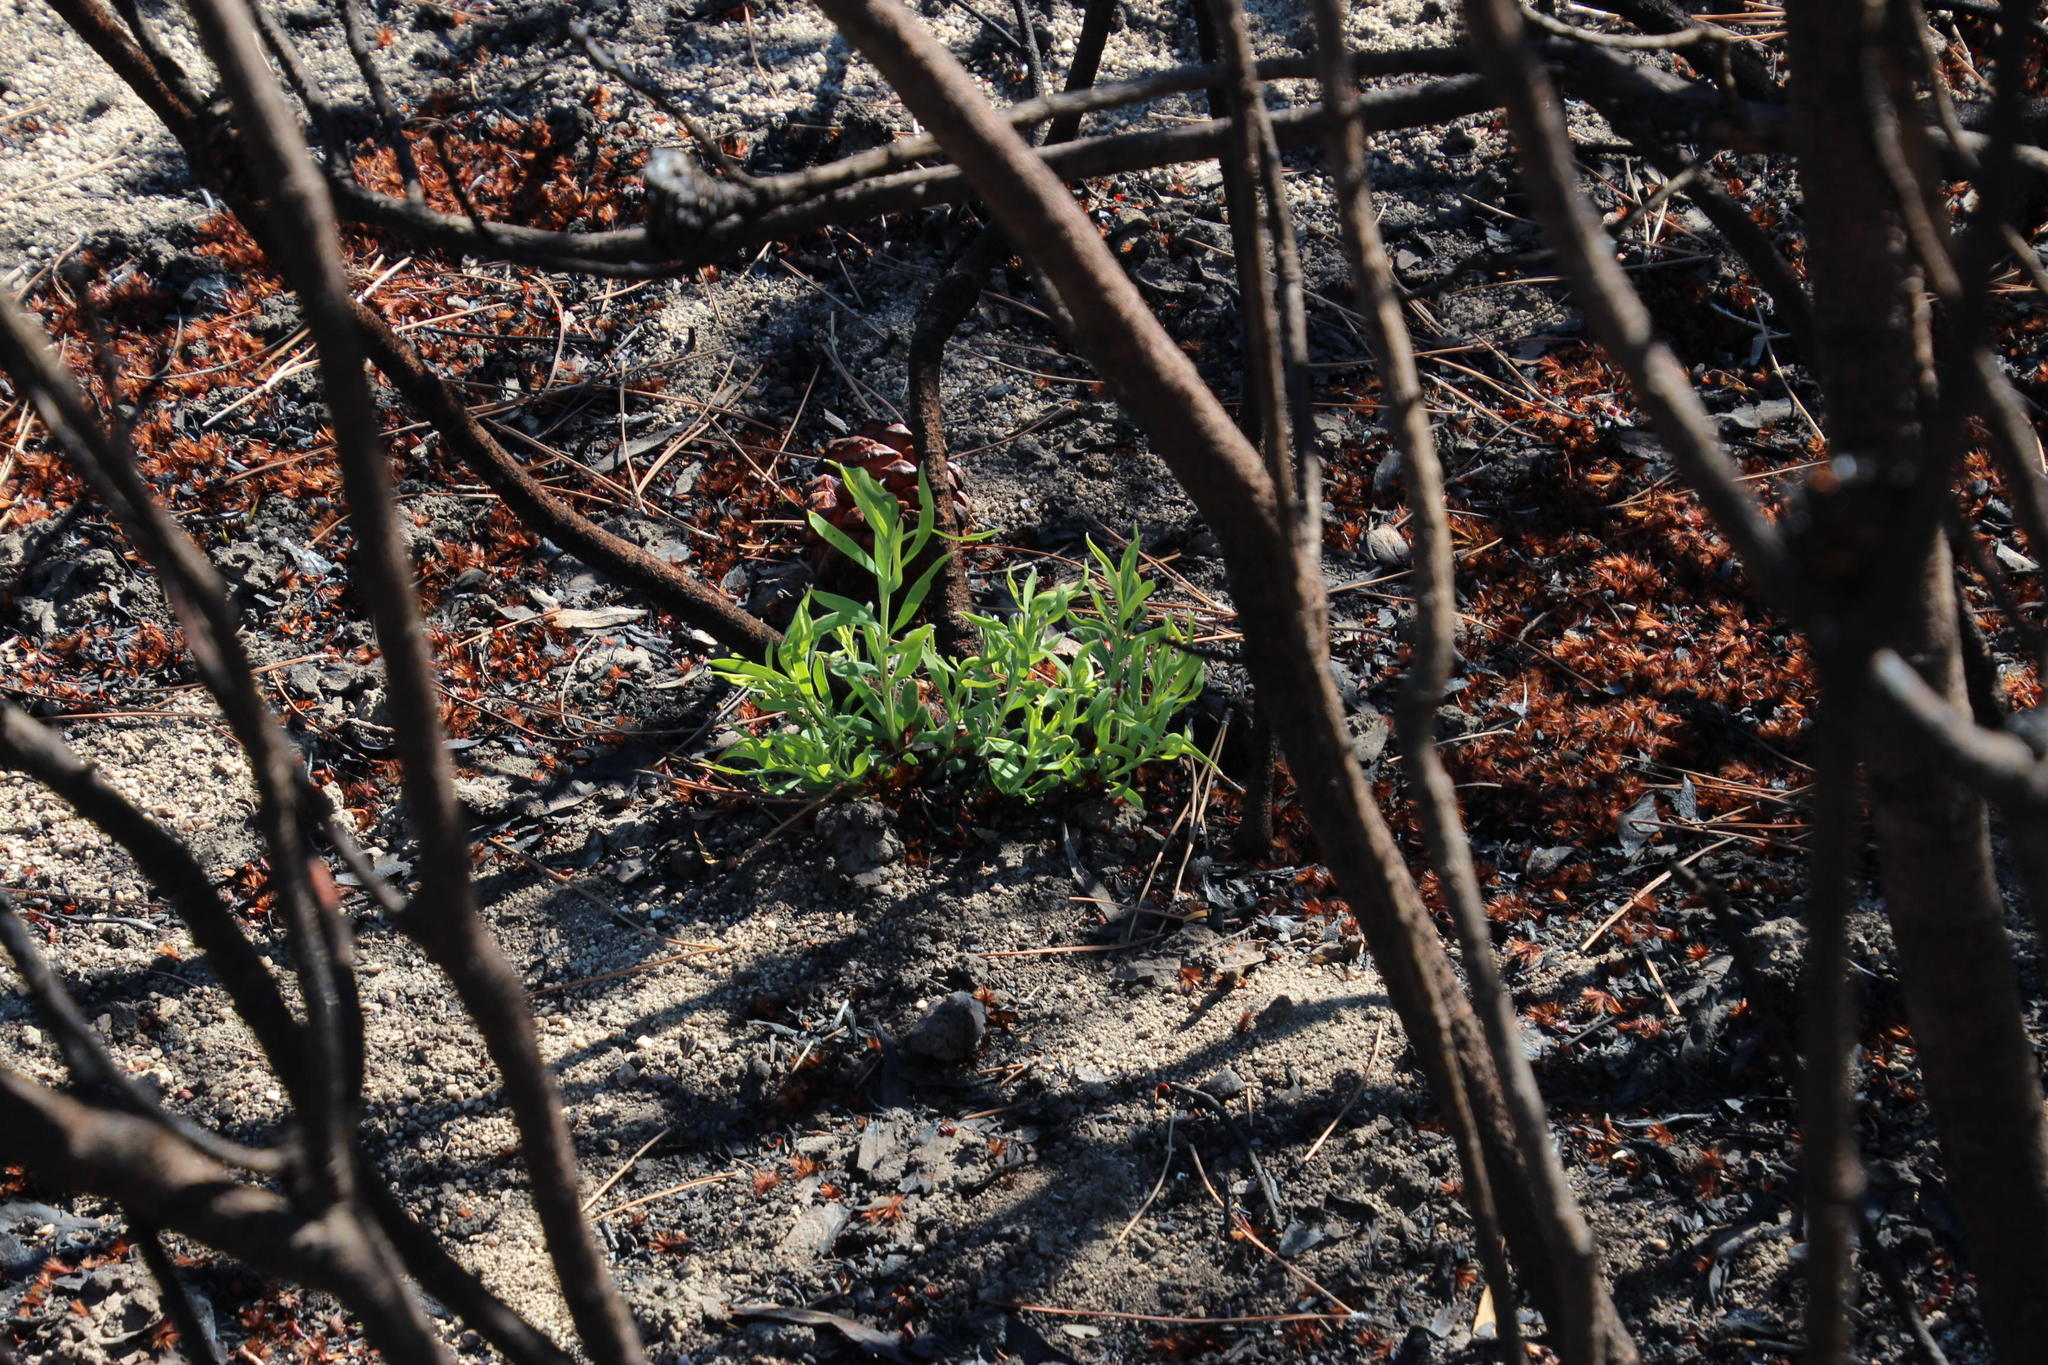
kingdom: Plantae
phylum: Tracheophyta
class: Magnoliopsida
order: Proteales
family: Proteaceae
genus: Leucadendron
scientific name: Leucadendron salignum
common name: Common sunshine conebush
